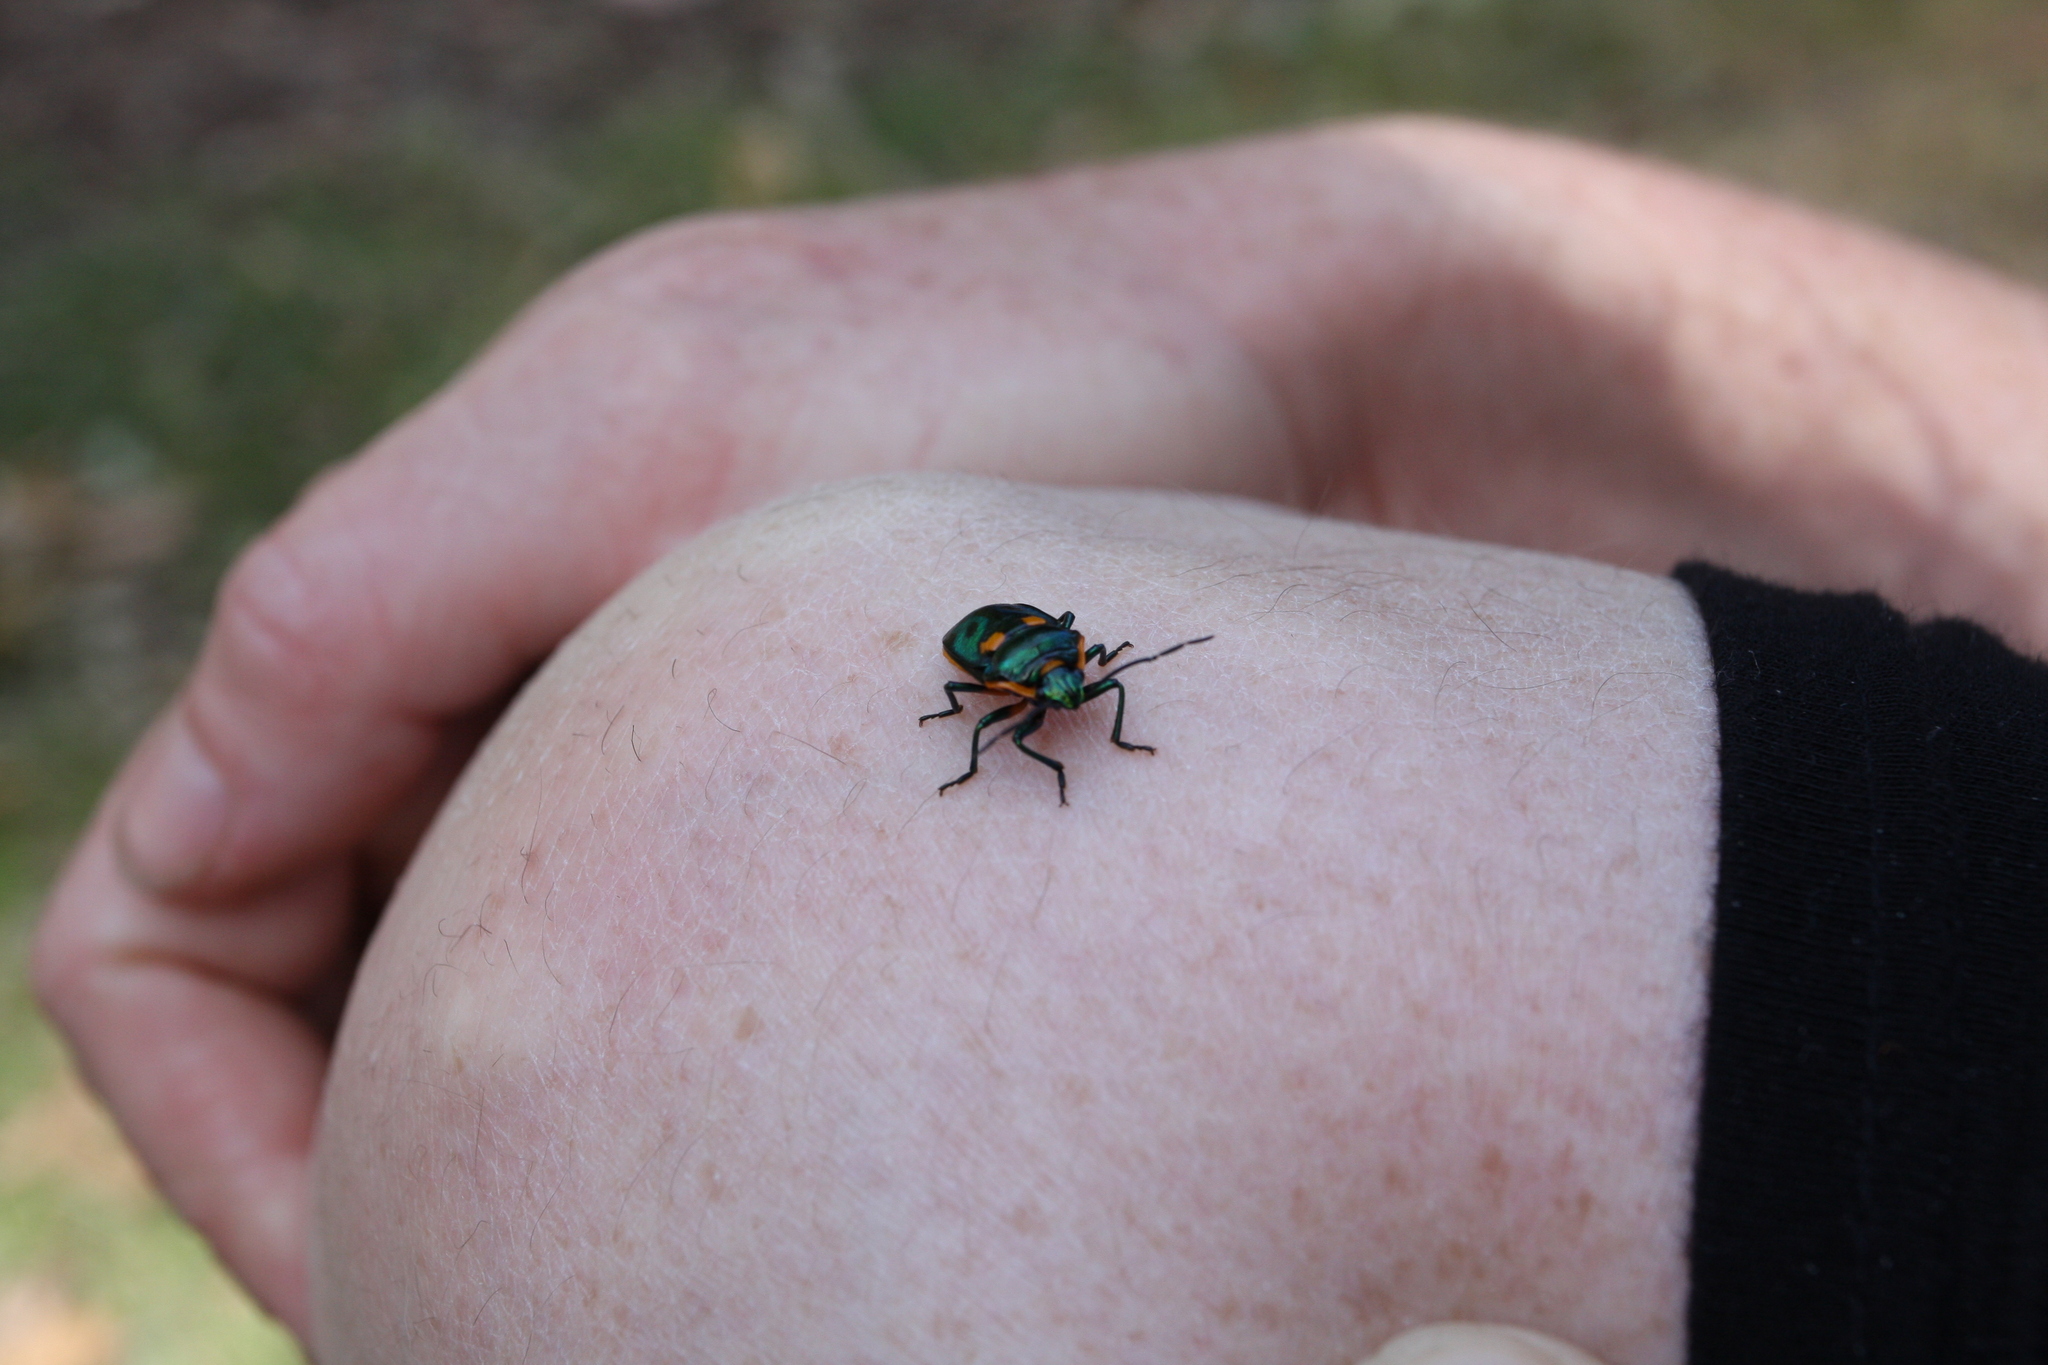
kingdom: Animalia
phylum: Arthropoda
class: Insecta
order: Hemiptera
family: Scutelleridae
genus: Scutiphora
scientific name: Scutiphora pedicellata
